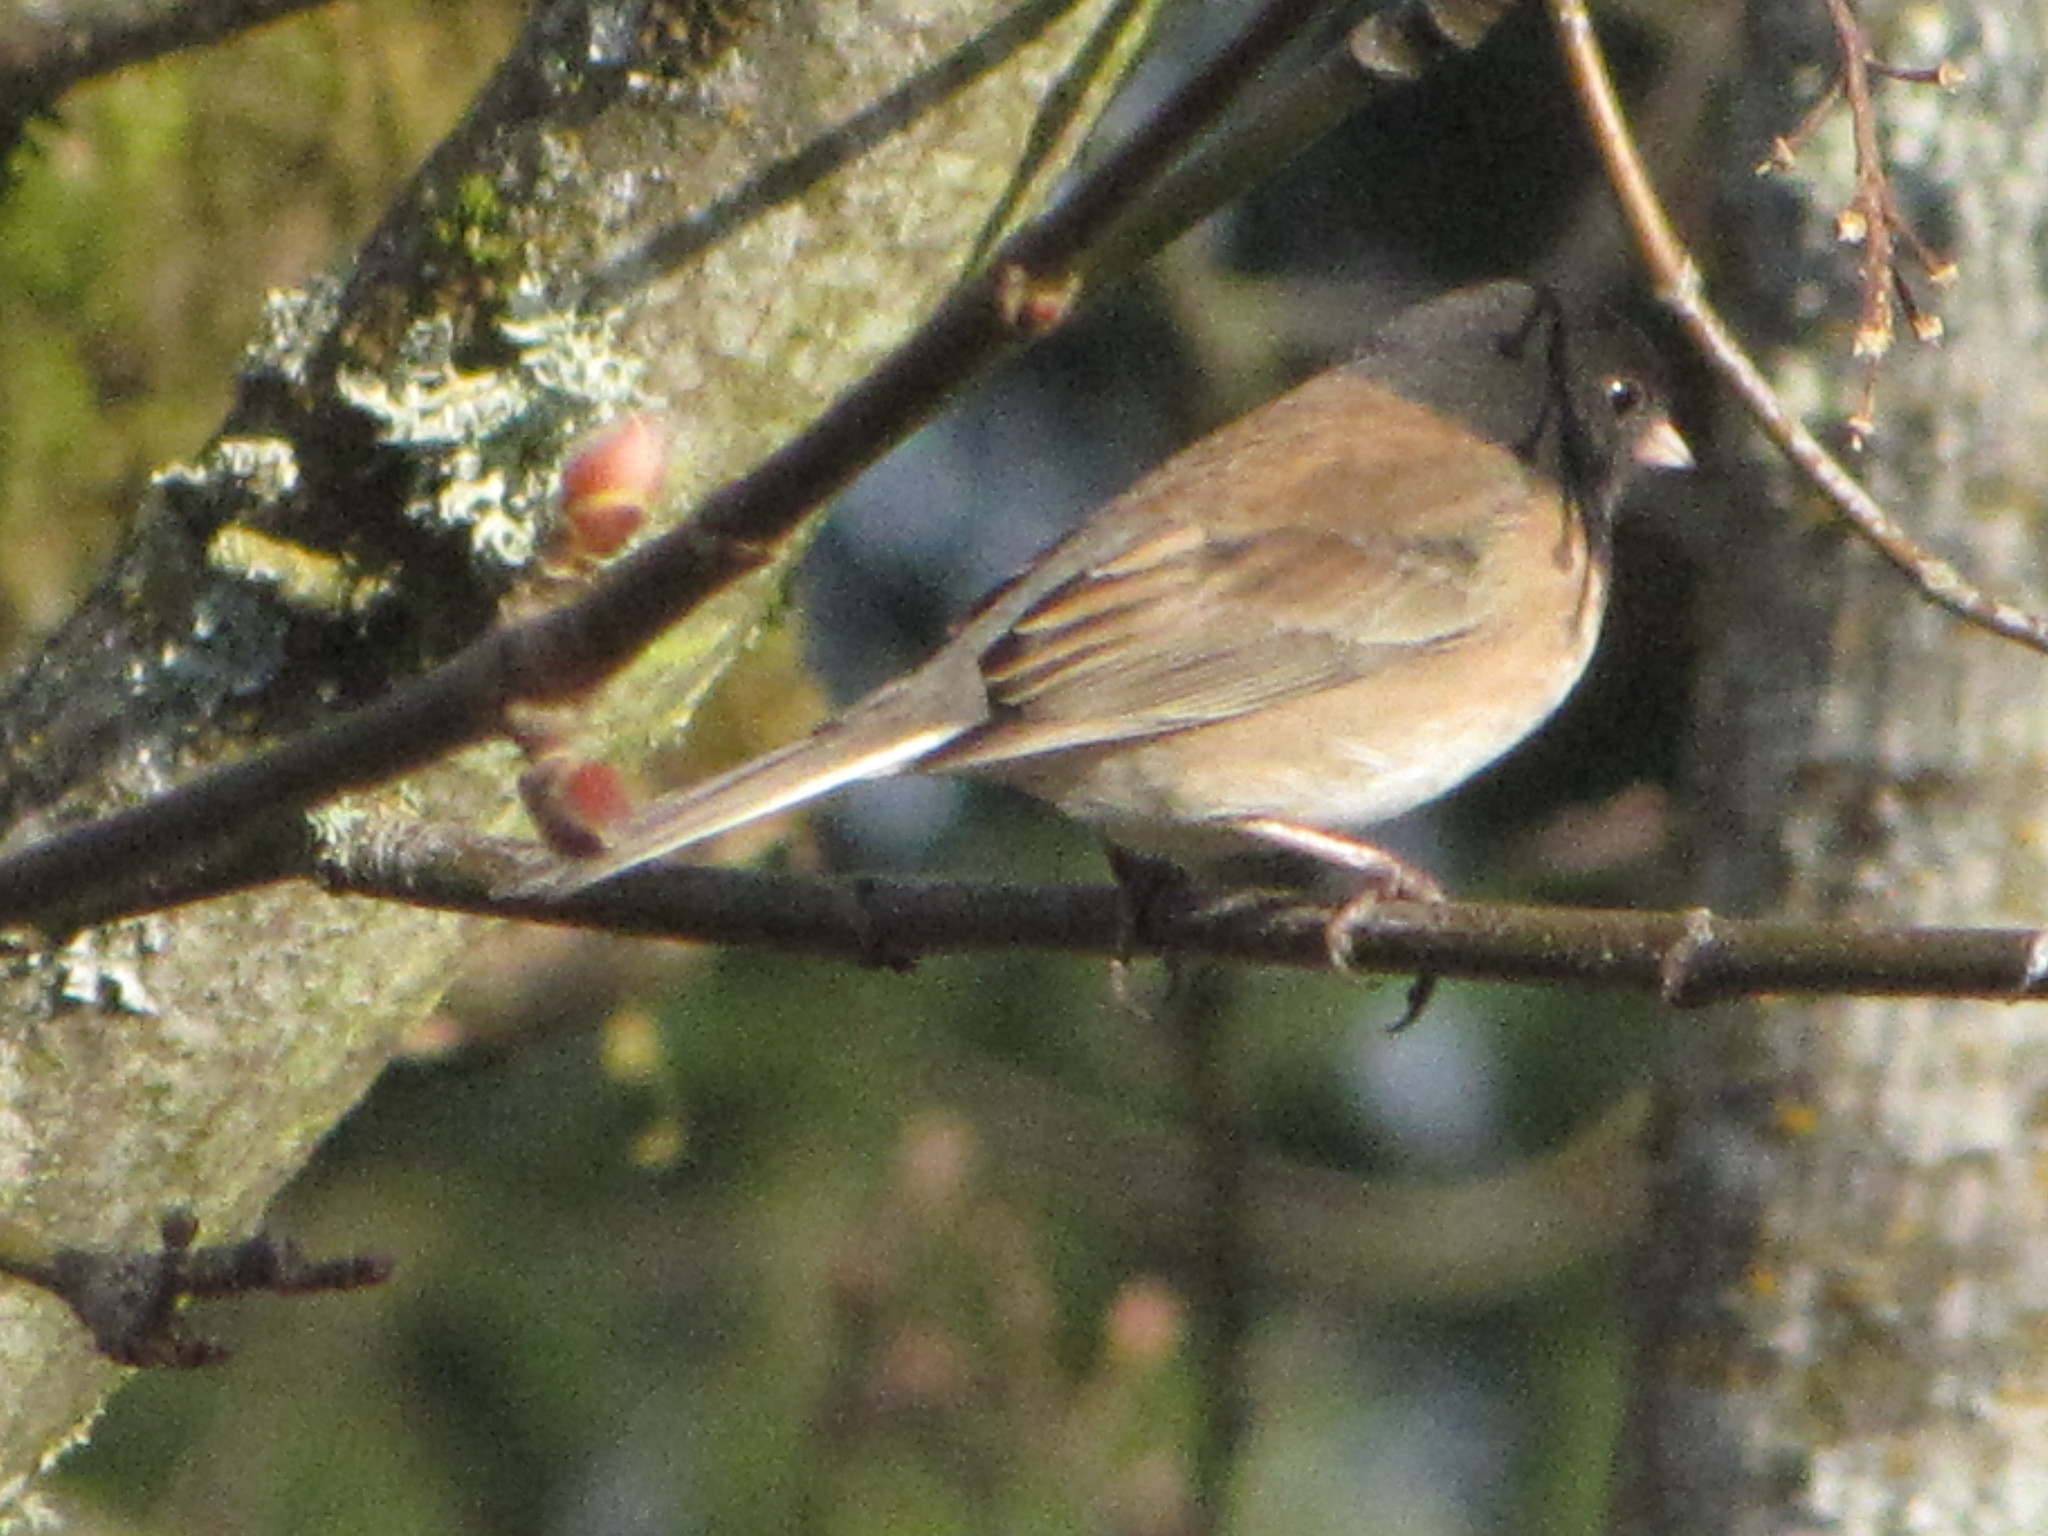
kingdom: Animalia
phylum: Chordata
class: Aves
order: Passeriformes
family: Passerellidae
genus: Junco
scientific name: Junco hyemalis
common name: Dark-eyed junco
